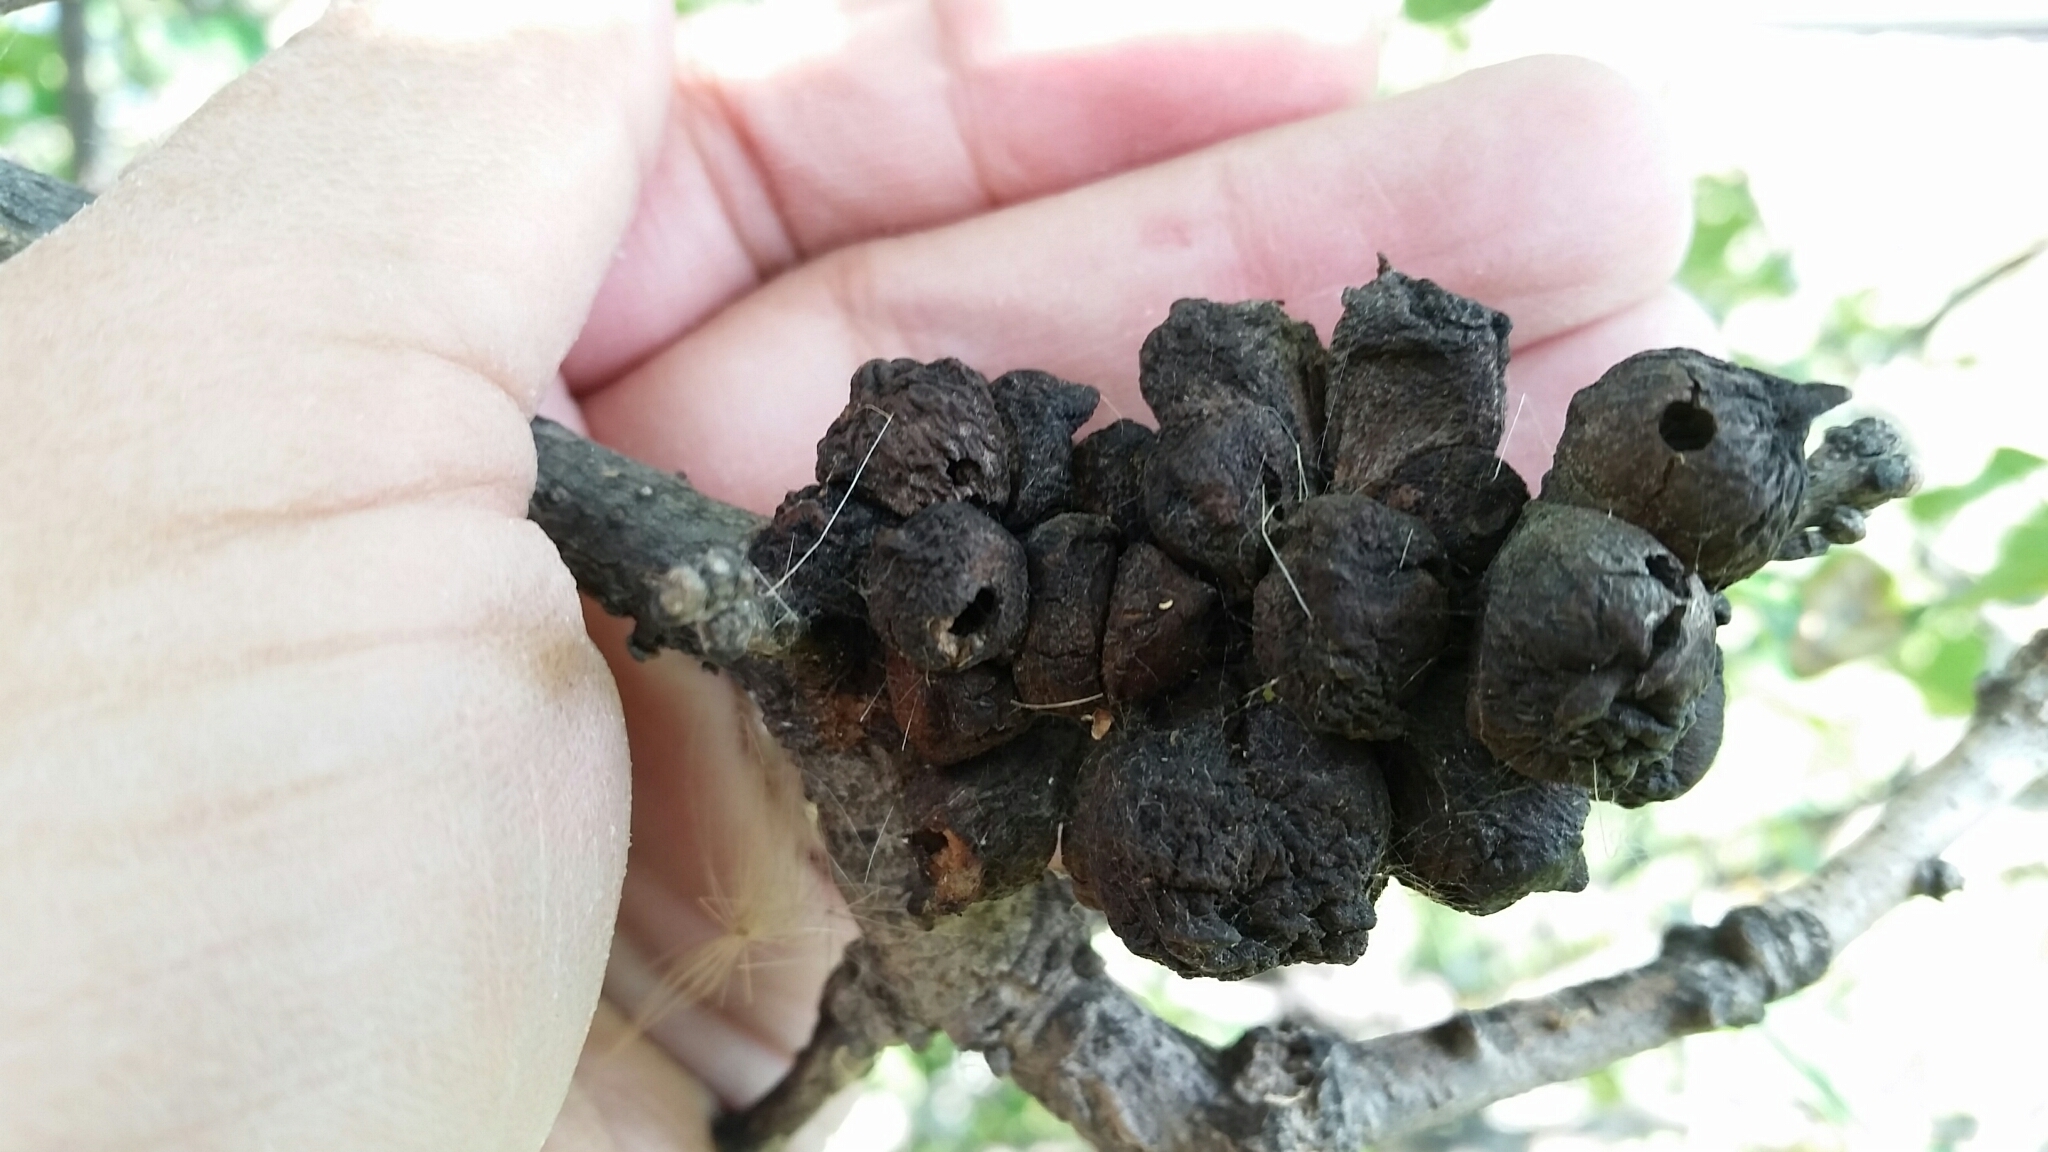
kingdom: Animalia
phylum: Arthropoda
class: Insecta
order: Hymenoptera
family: Cynipidae
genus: Disholcaspis
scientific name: Disholcaspis
